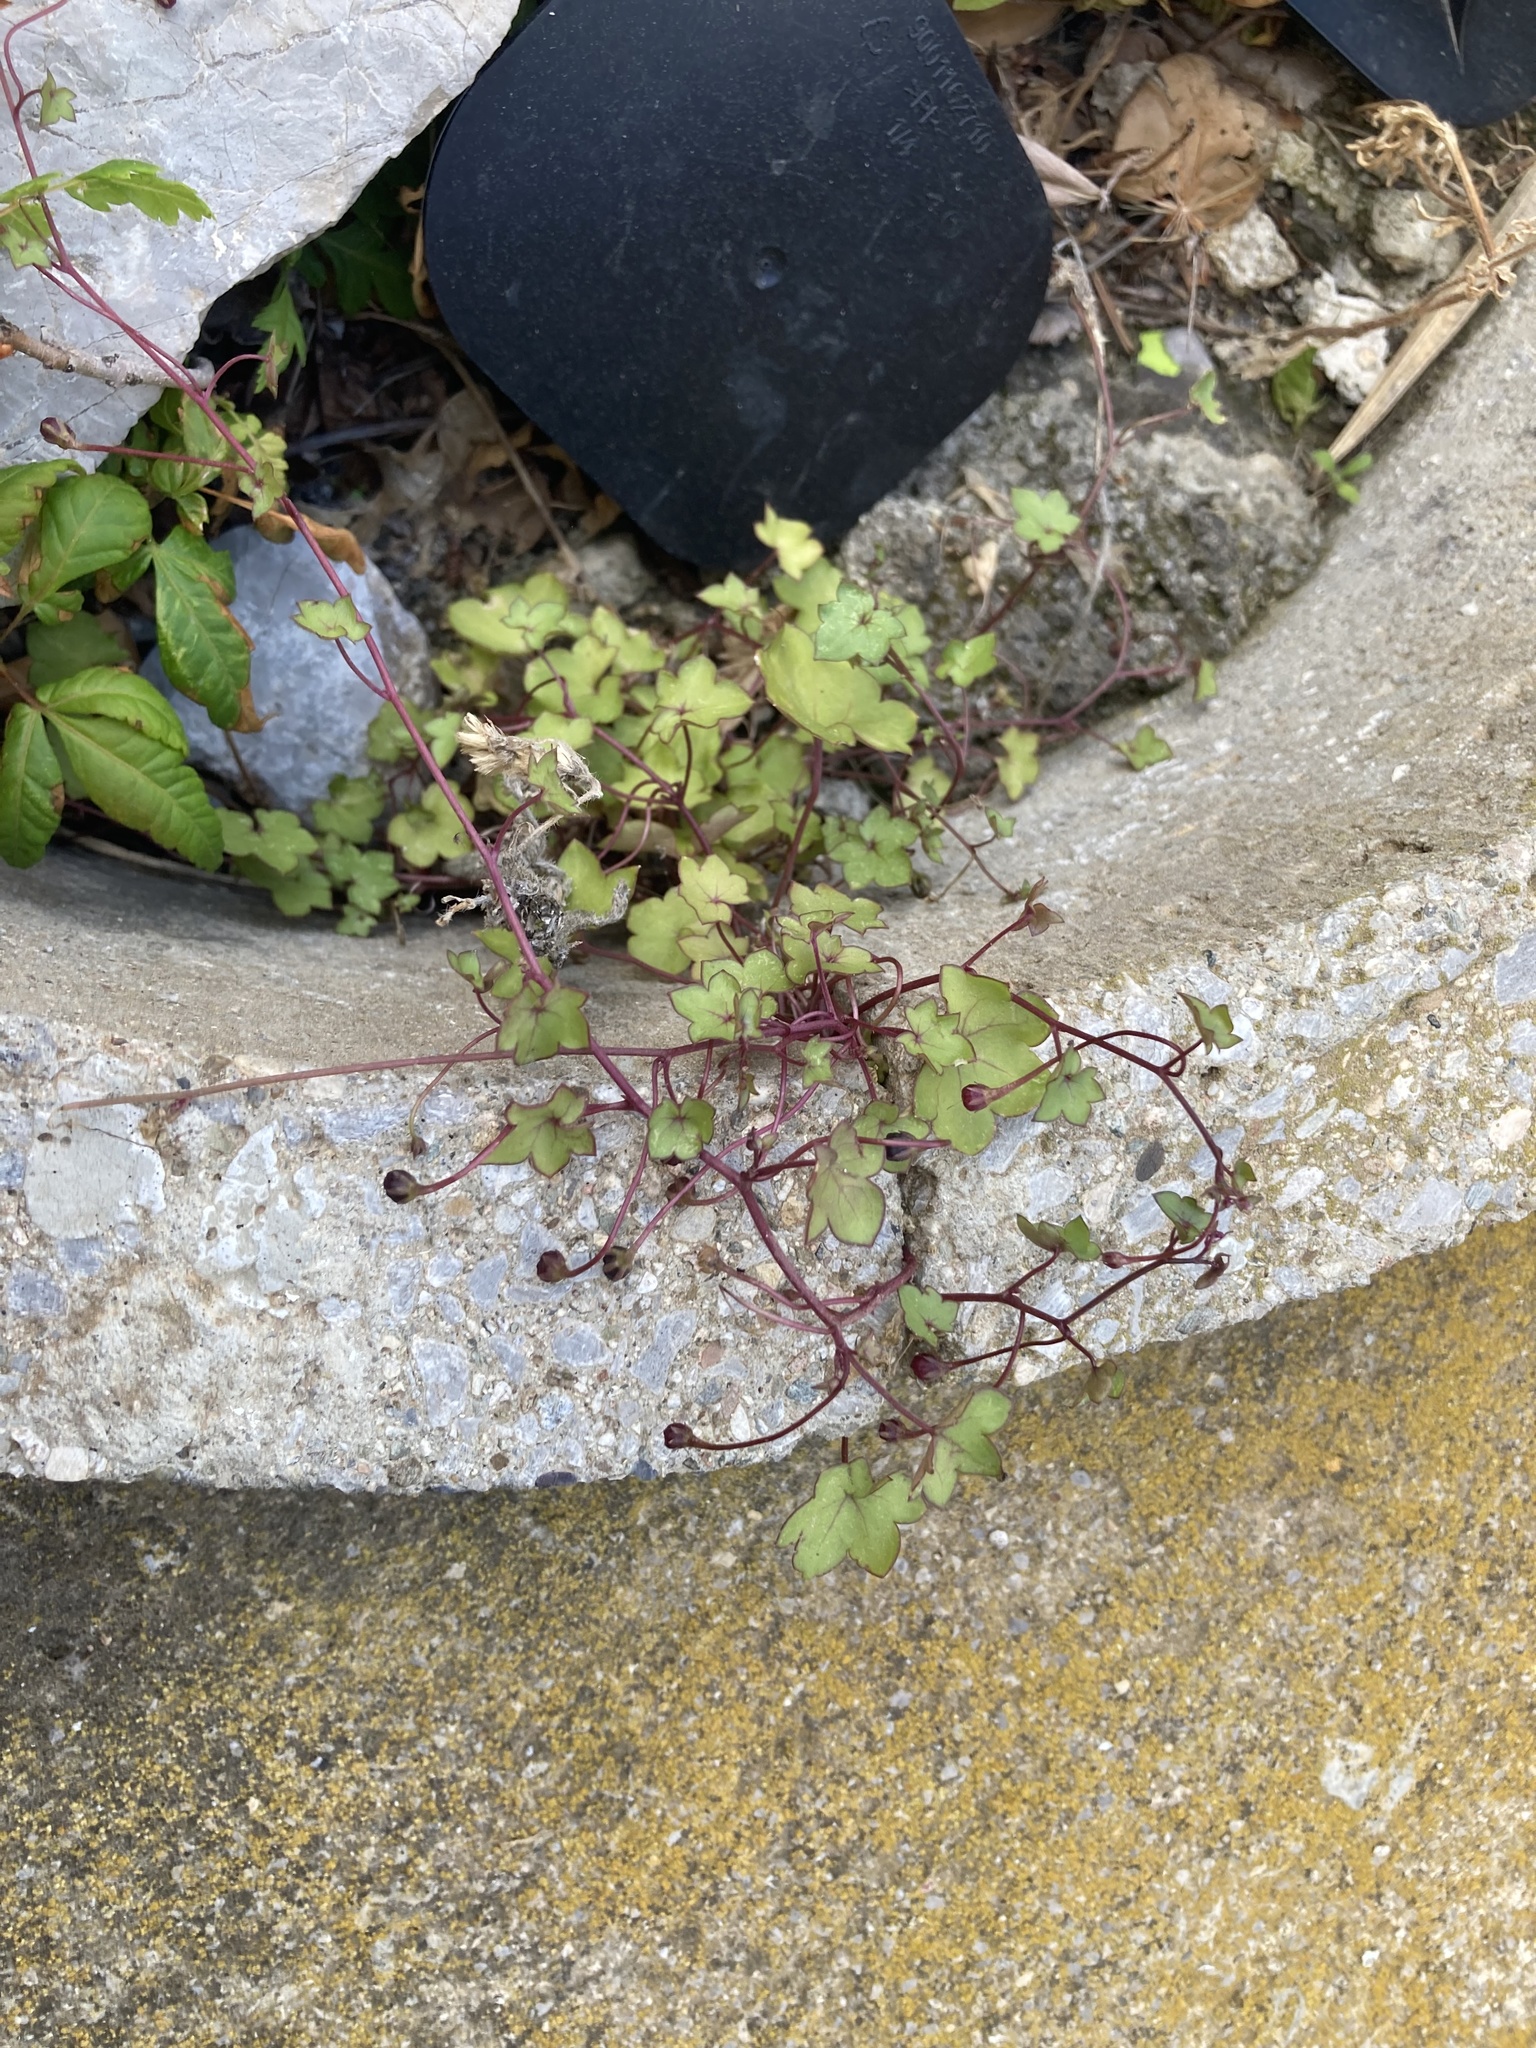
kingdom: Plantae
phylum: Tracheophyta
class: Magnoliopsida
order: Lamiales
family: Plantaginaceae
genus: Cymbalaria
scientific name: Cymbalaria muralis
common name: Ivy-leaved toadflax
